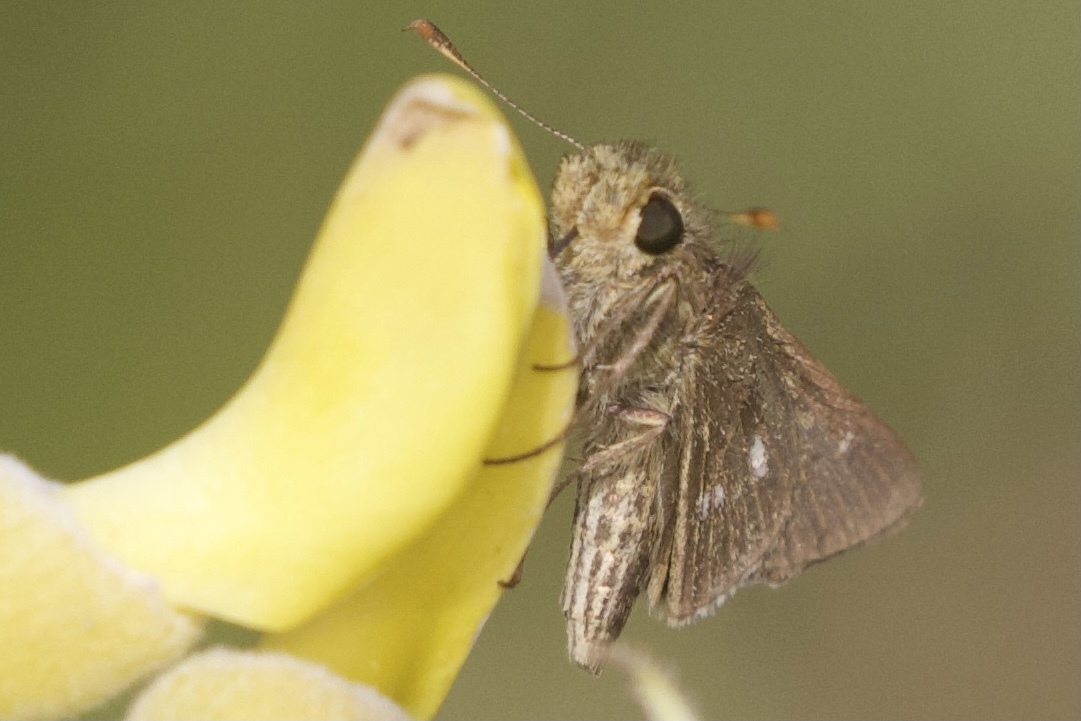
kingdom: Animalia
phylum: Arthropoda
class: Insecta
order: Lepidoptera
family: Hesperiidae
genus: Panoquina
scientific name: Panoquina panoquinoides
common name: Beach skipper
